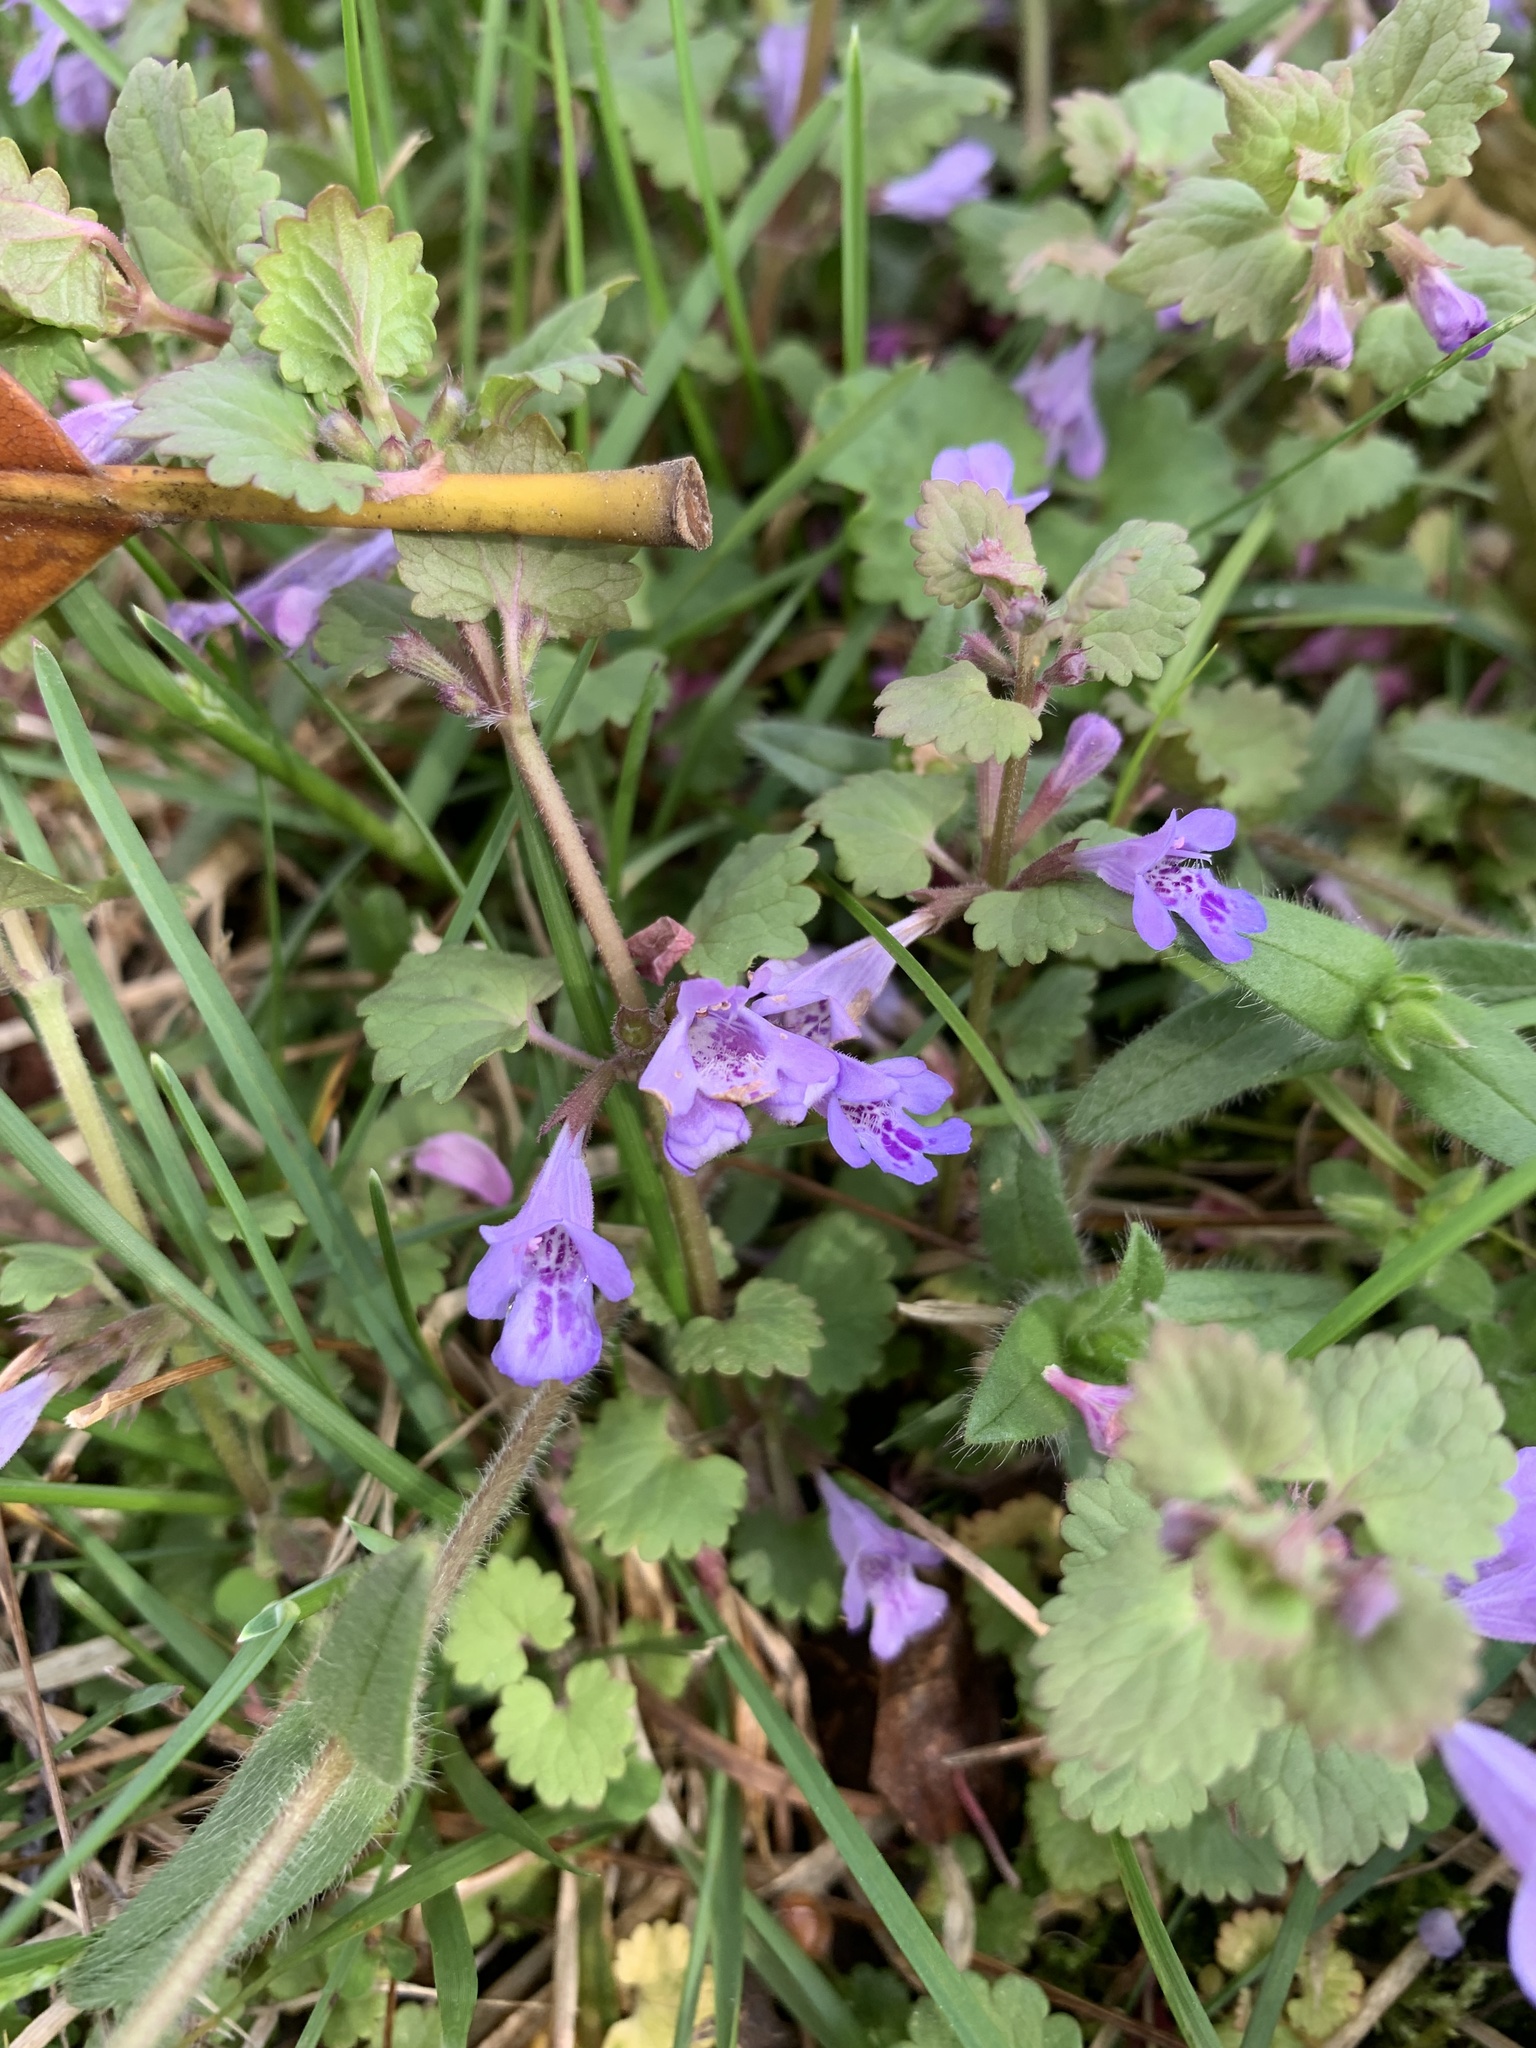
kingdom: Plantae
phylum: Tracheophyta
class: Magnoliopsida
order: Lamiales
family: Lamiaceae
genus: Glechoma
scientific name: Glechoma hederacea
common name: Ground ivy
